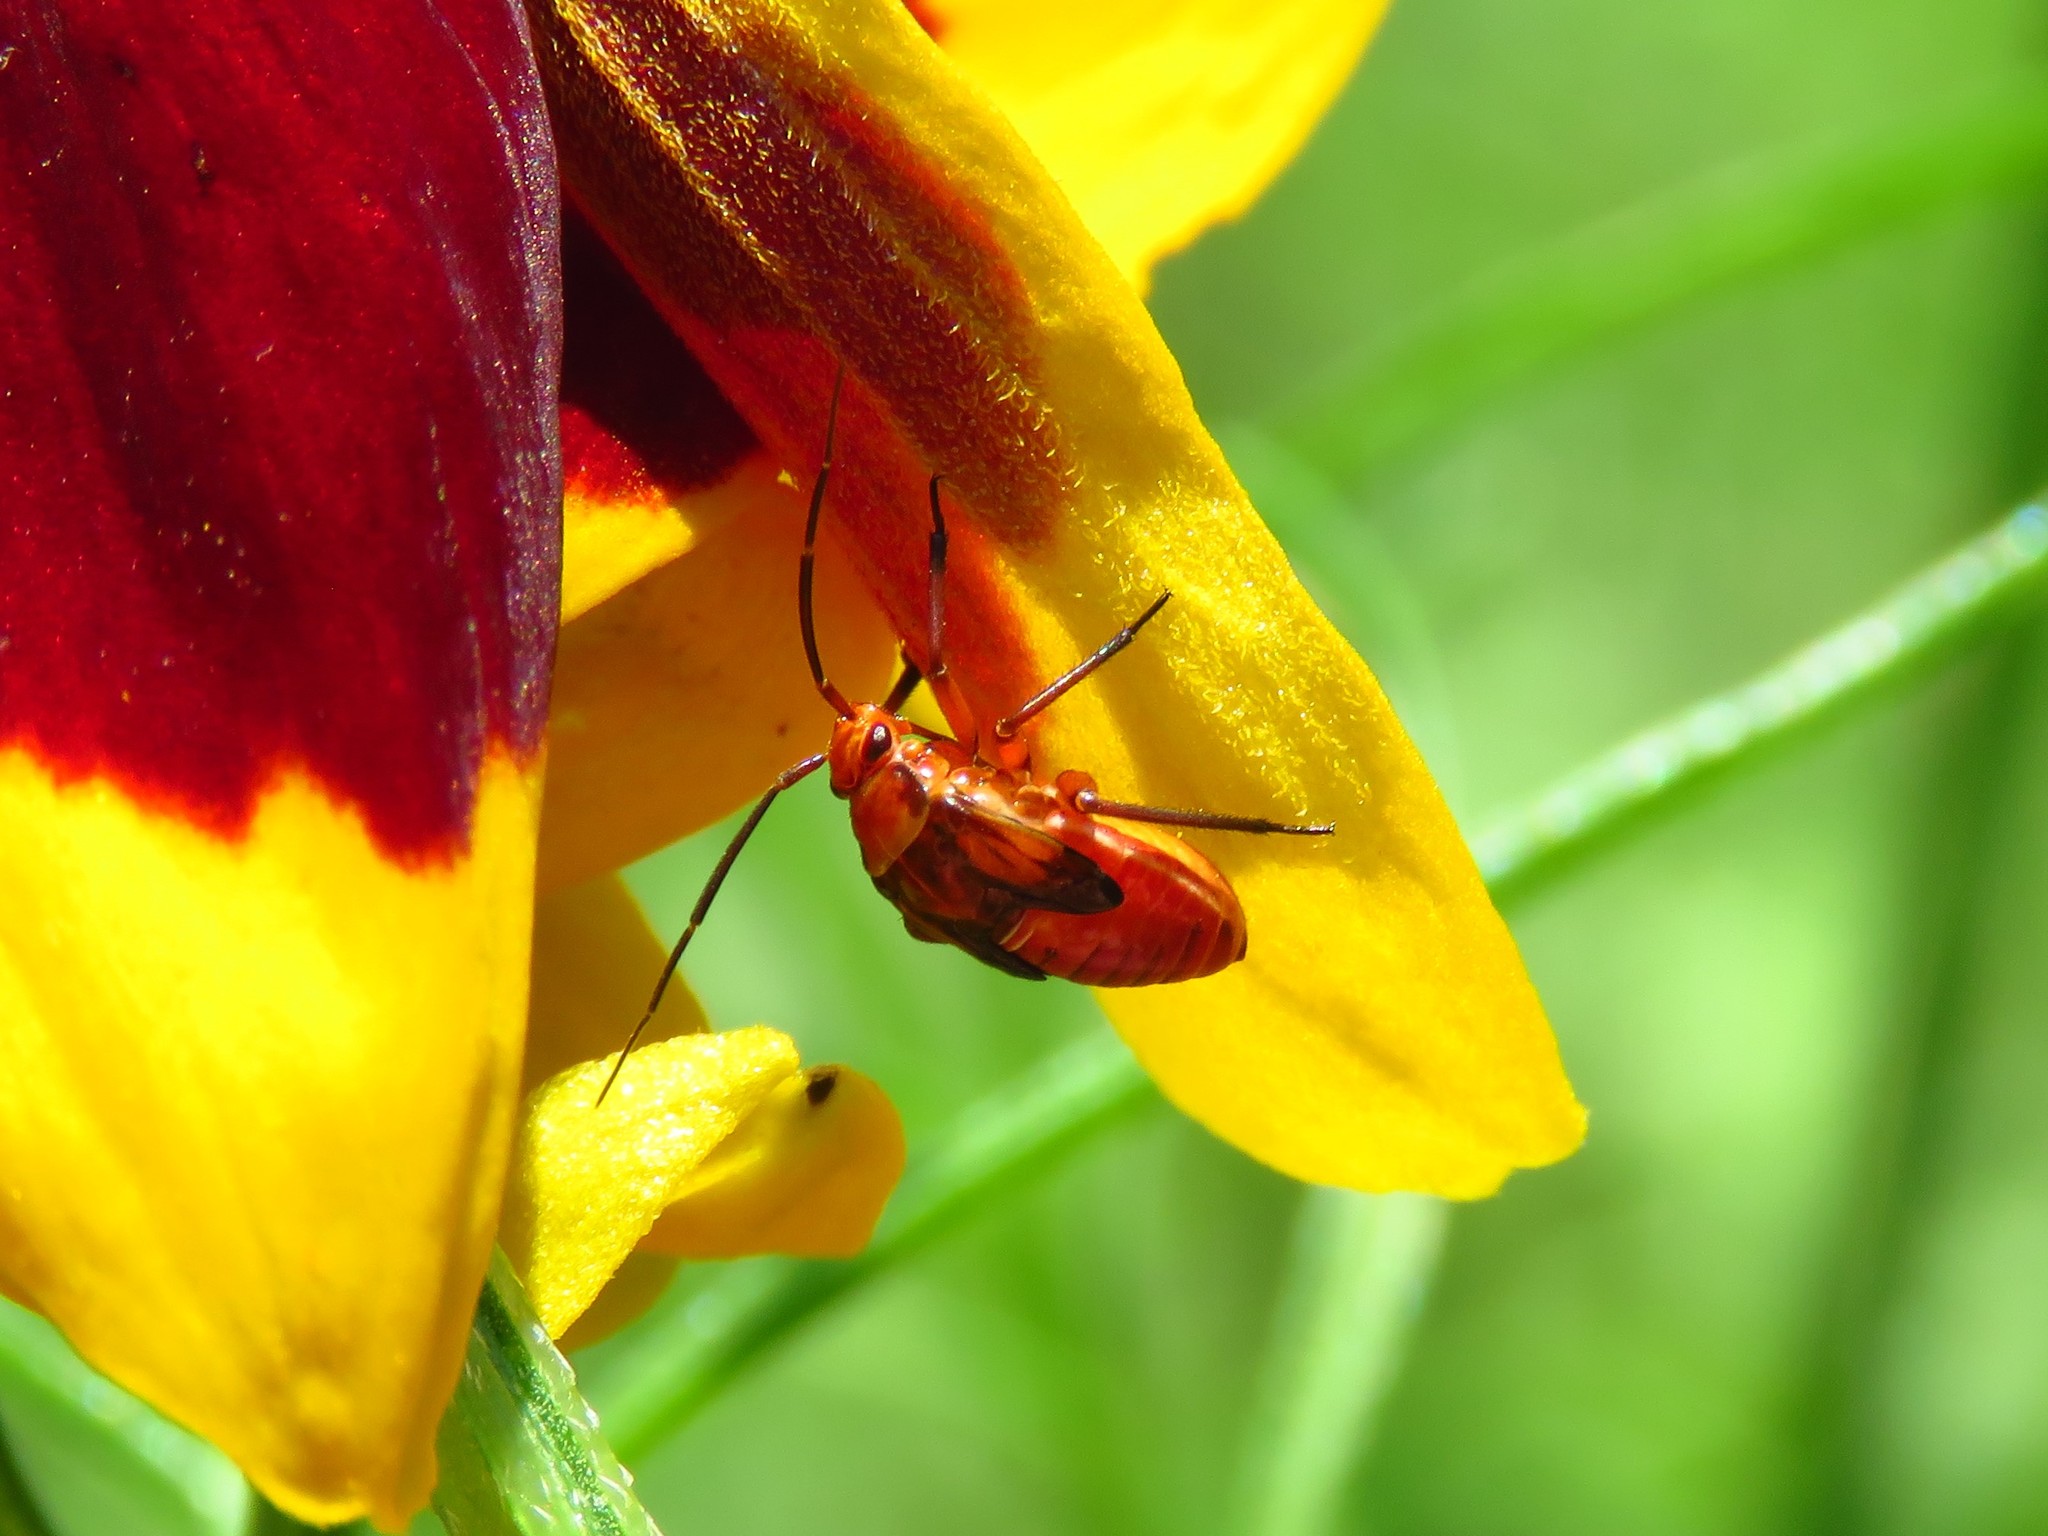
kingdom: Animalia
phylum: Arthropoda
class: Insecta
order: Hemiptera
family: Miridae
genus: Calocoris
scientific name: Calocoris barberi
